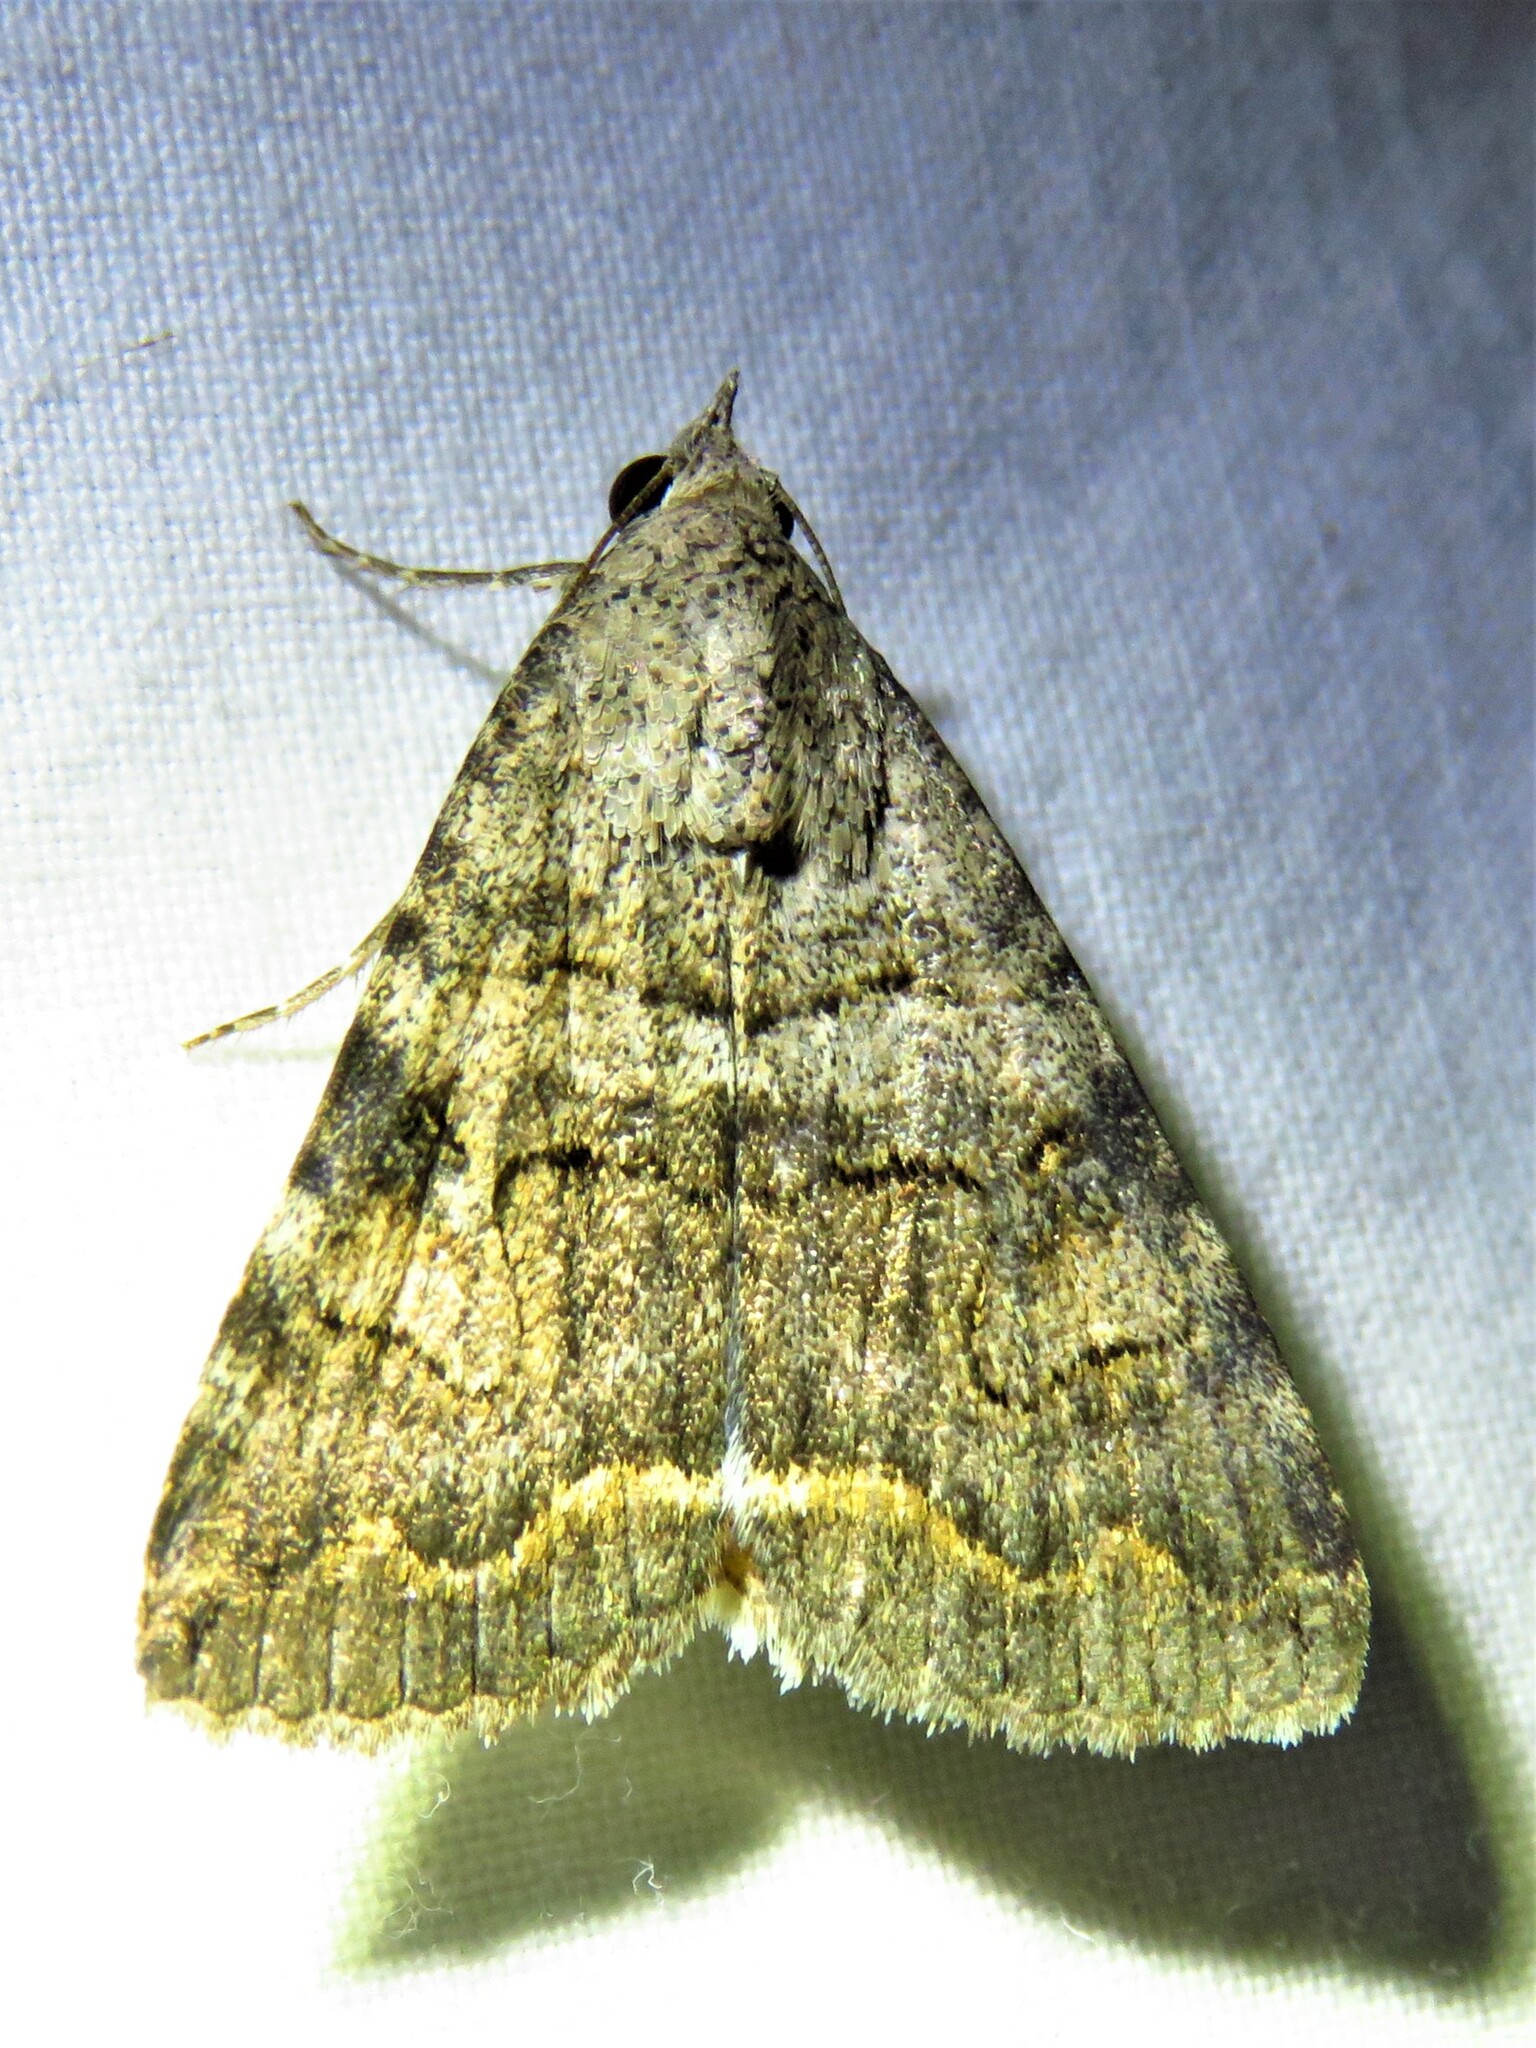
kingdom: Animalia
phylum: Arthropoda
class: Insecta
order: Lepidoptera
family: Erebidae
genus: Bulia
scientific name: Bulia deducta
